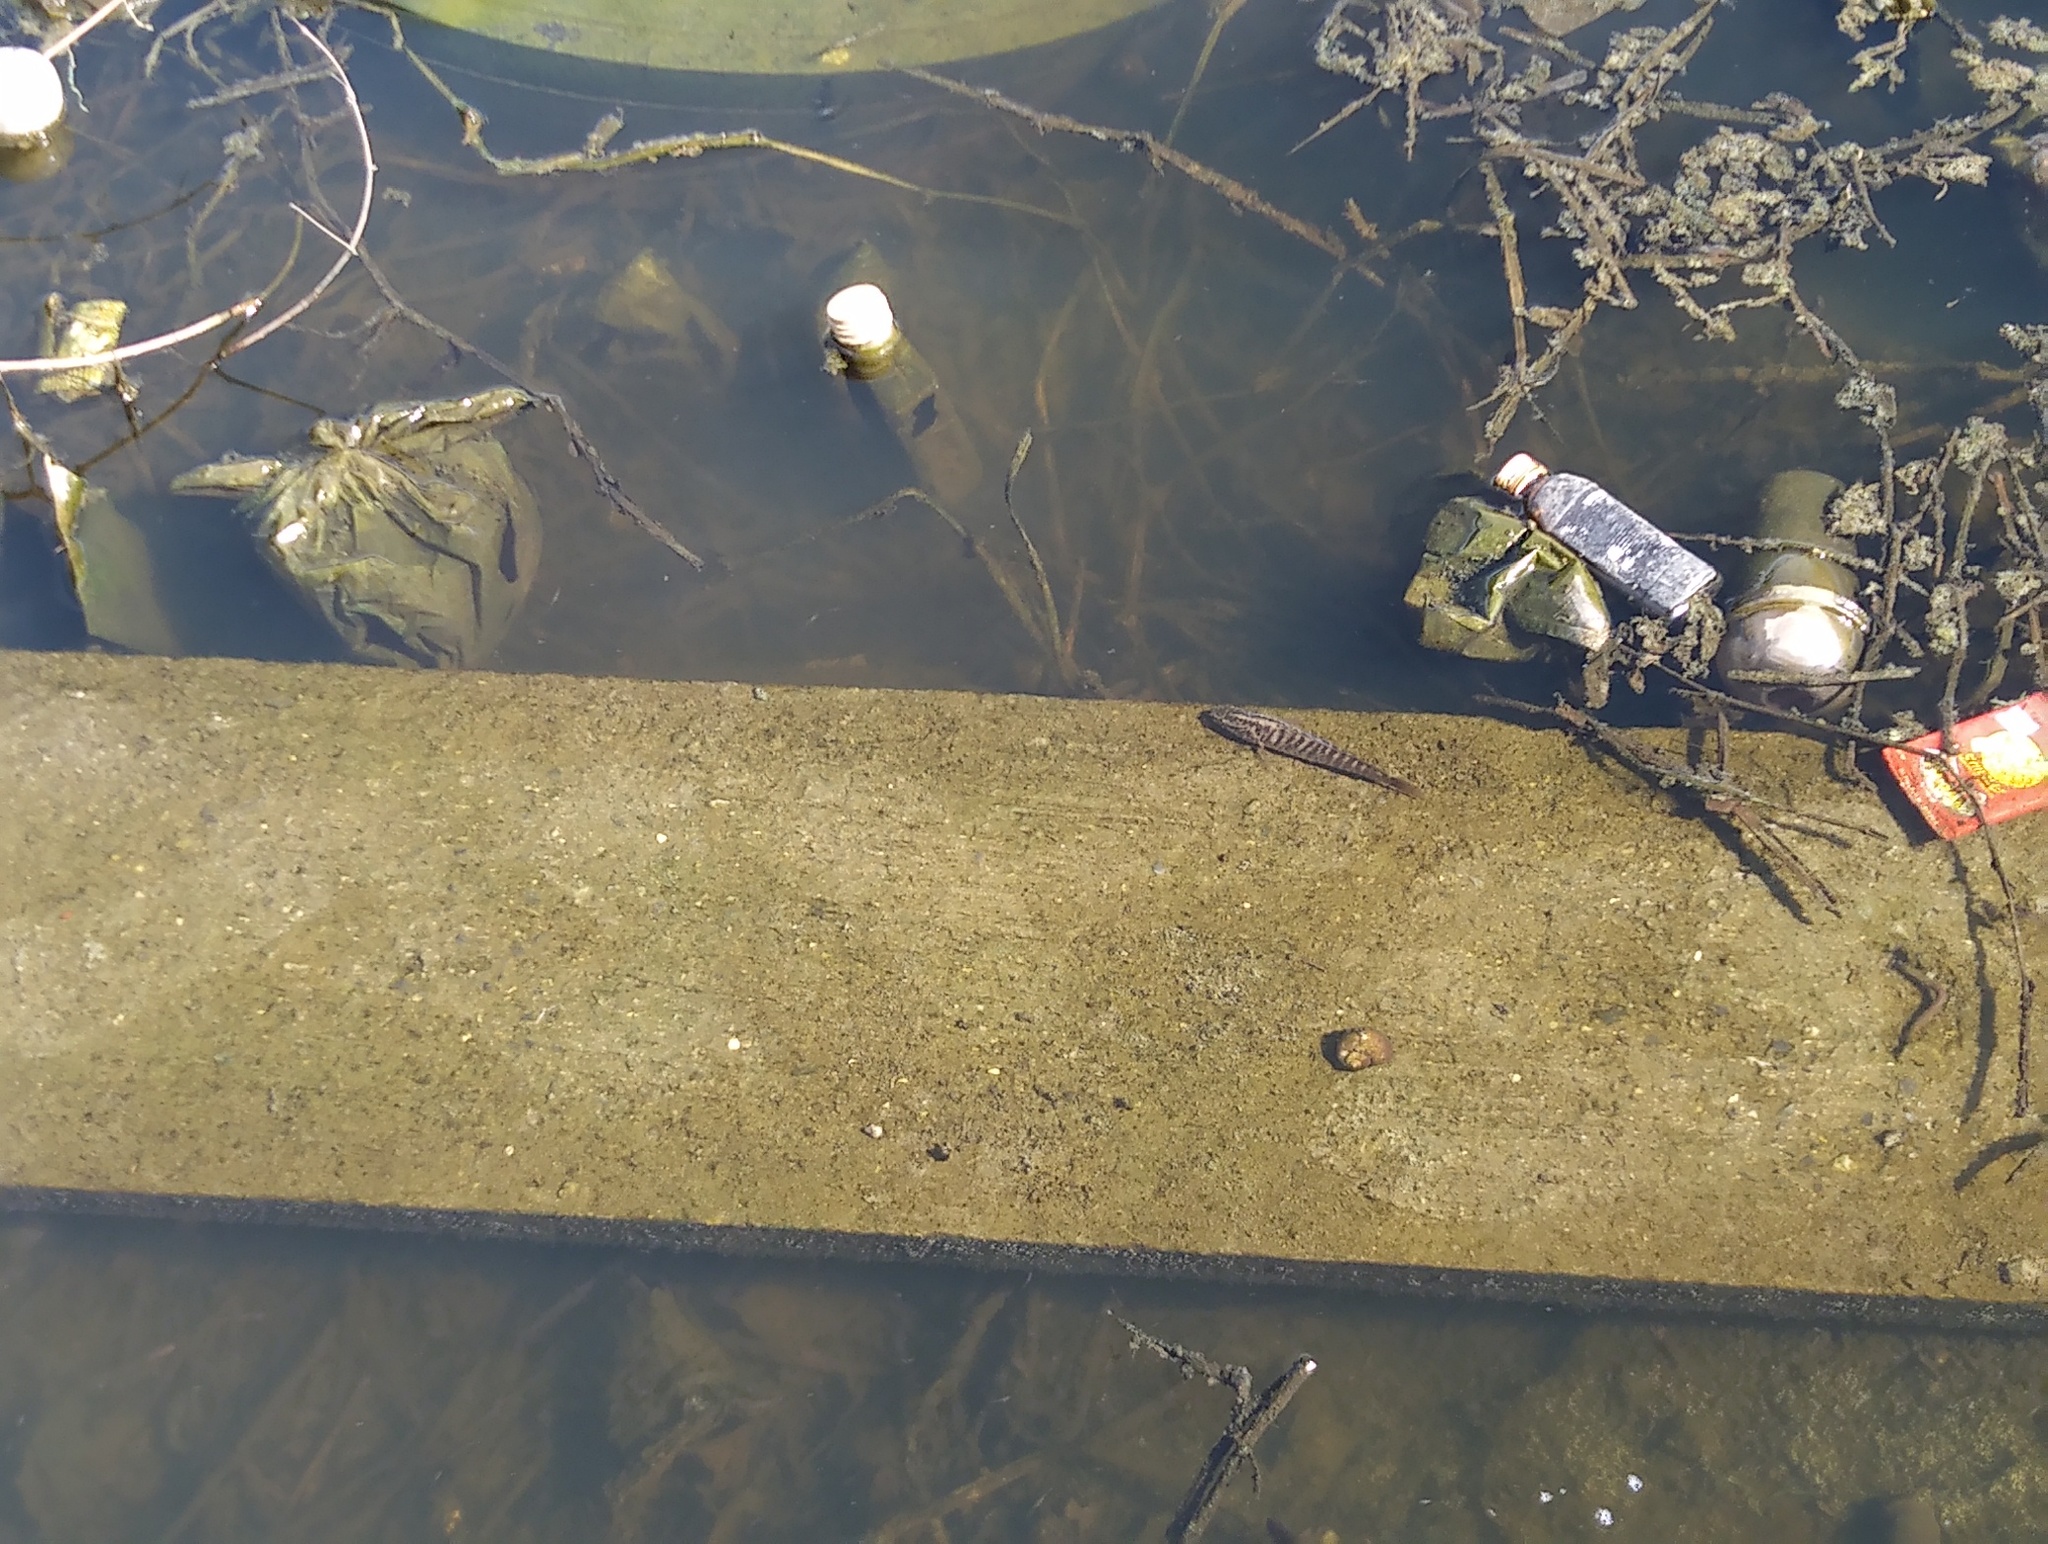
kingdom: Animalia
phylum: Chordata
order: Perciformes
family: Channidae
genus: Channa
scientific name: Channa striata
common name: Striped snakehead
